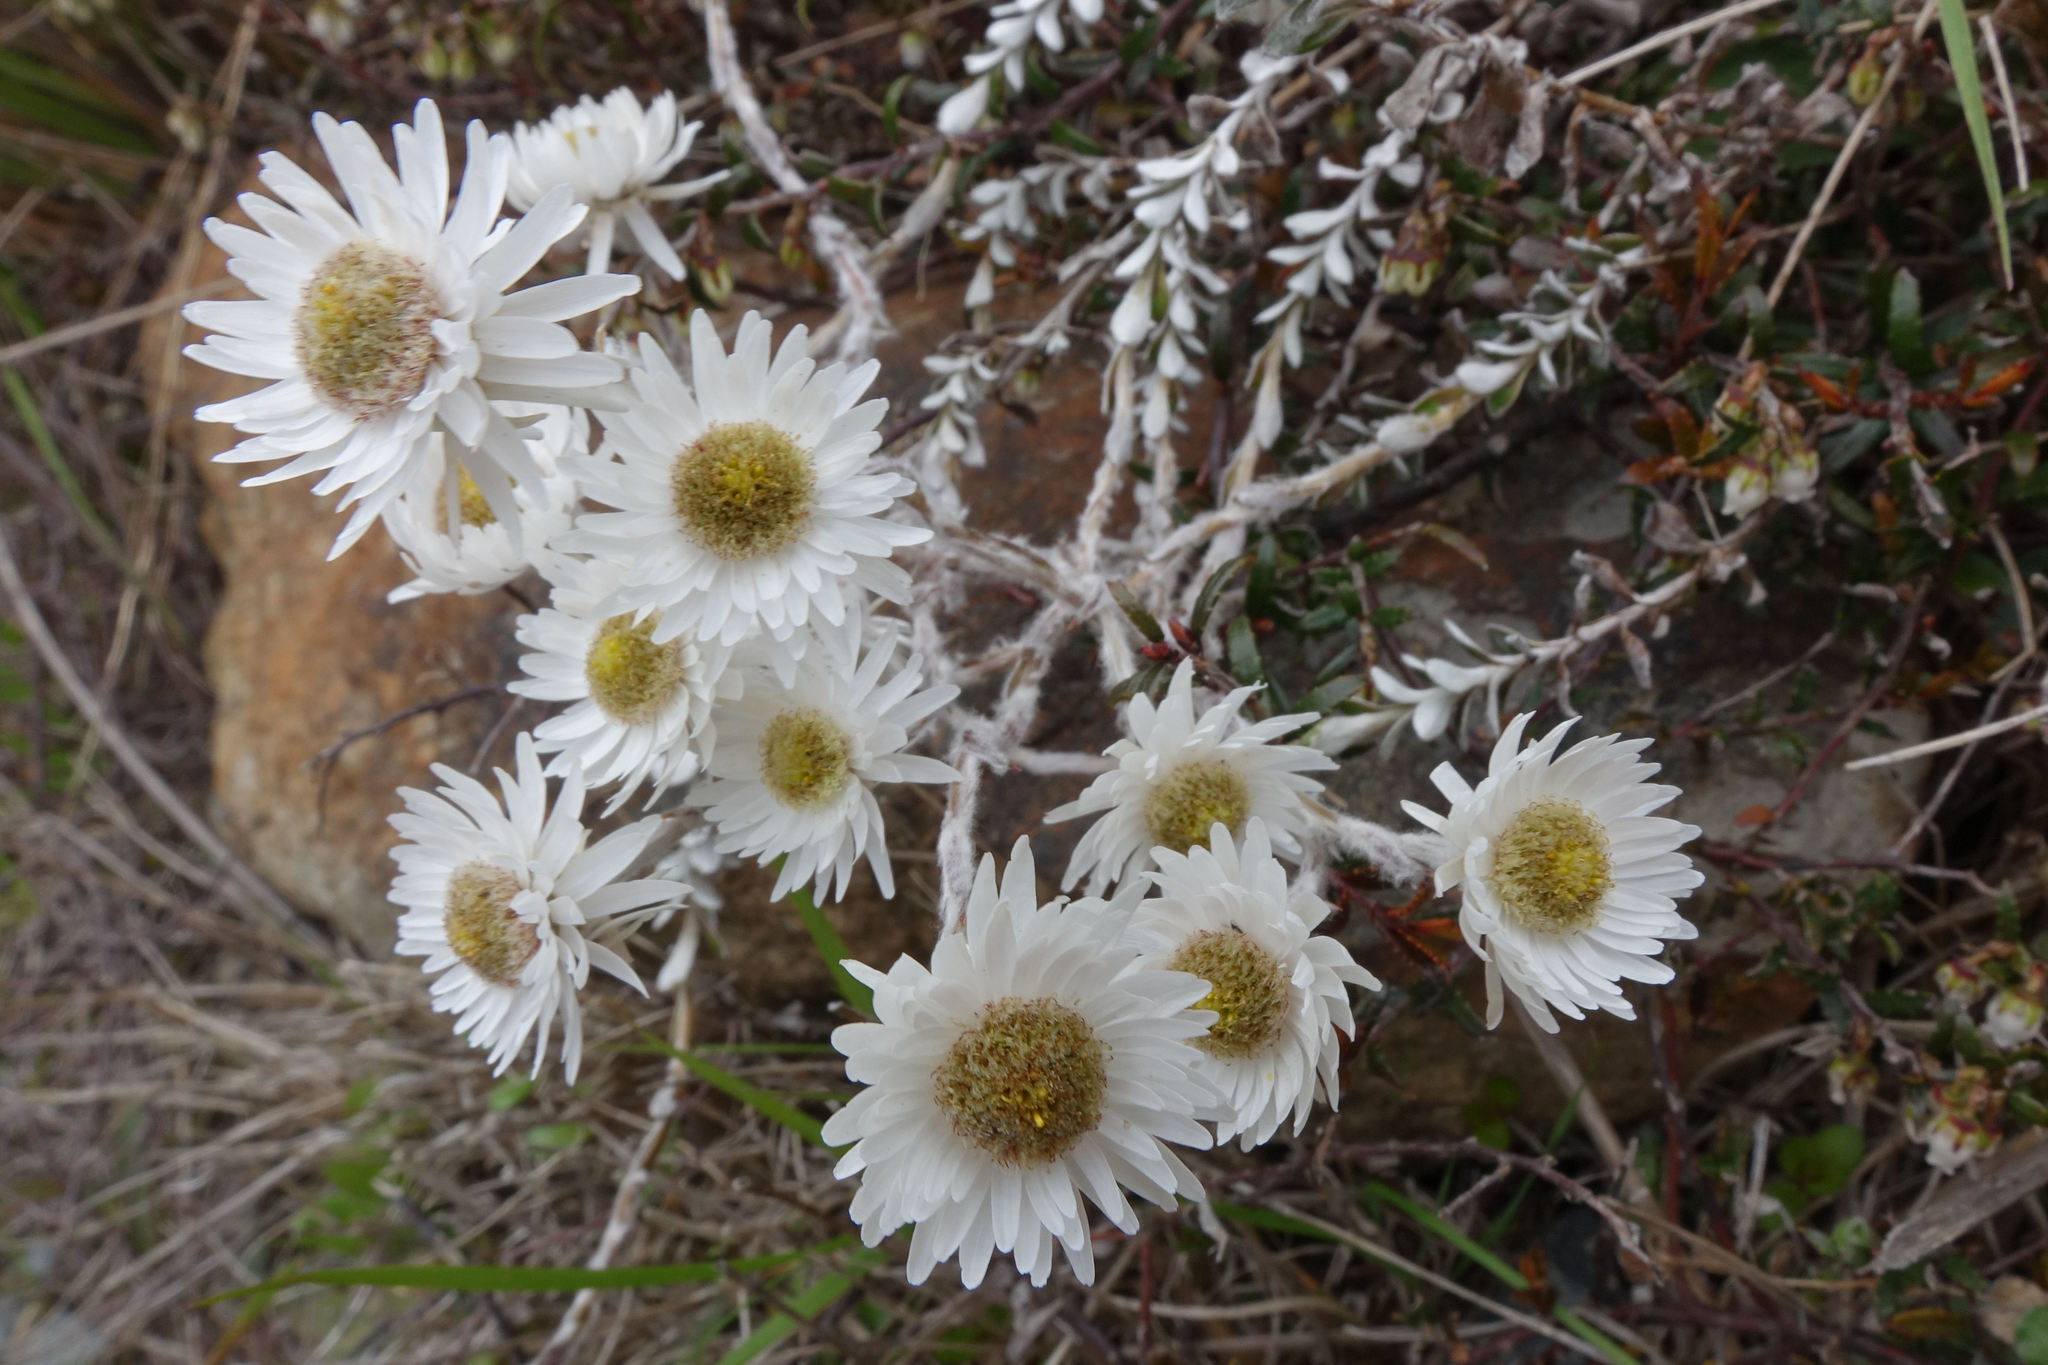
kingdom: Plantae
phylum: Tracheophyta
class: Magnoliopsida
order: Asterales
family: Asteraceae
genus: Anaphalioides
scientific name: Anaphalioides bellidioides
